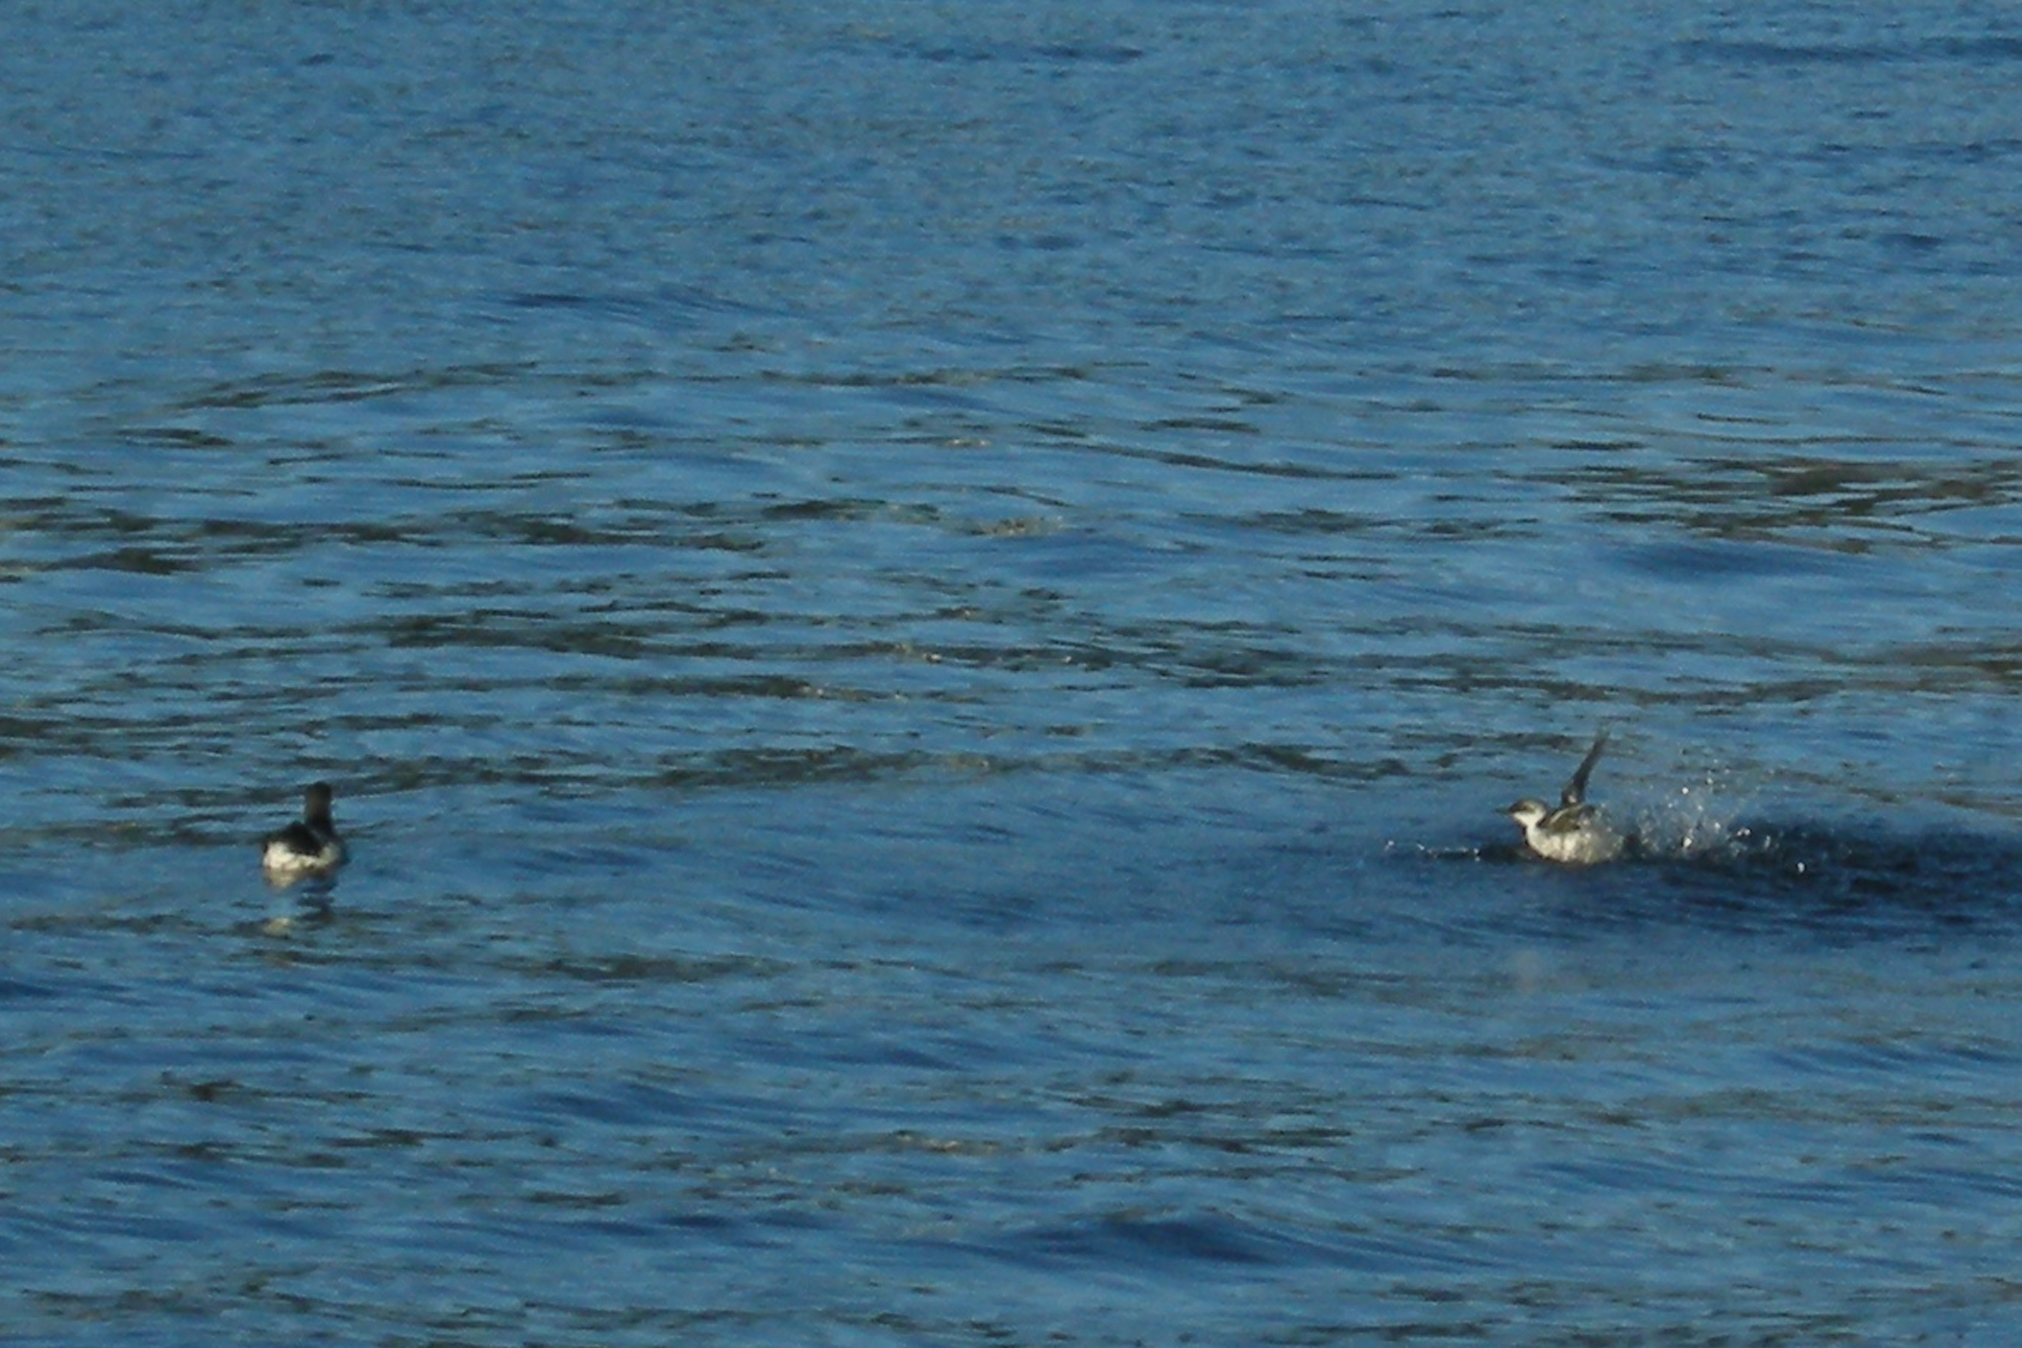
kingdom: Animalia
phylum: Chordata
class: Aves
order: Charadriiformes
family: Alcidae
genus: Cepphus
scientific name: Cepphus columba
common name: Pigeon guillemot
